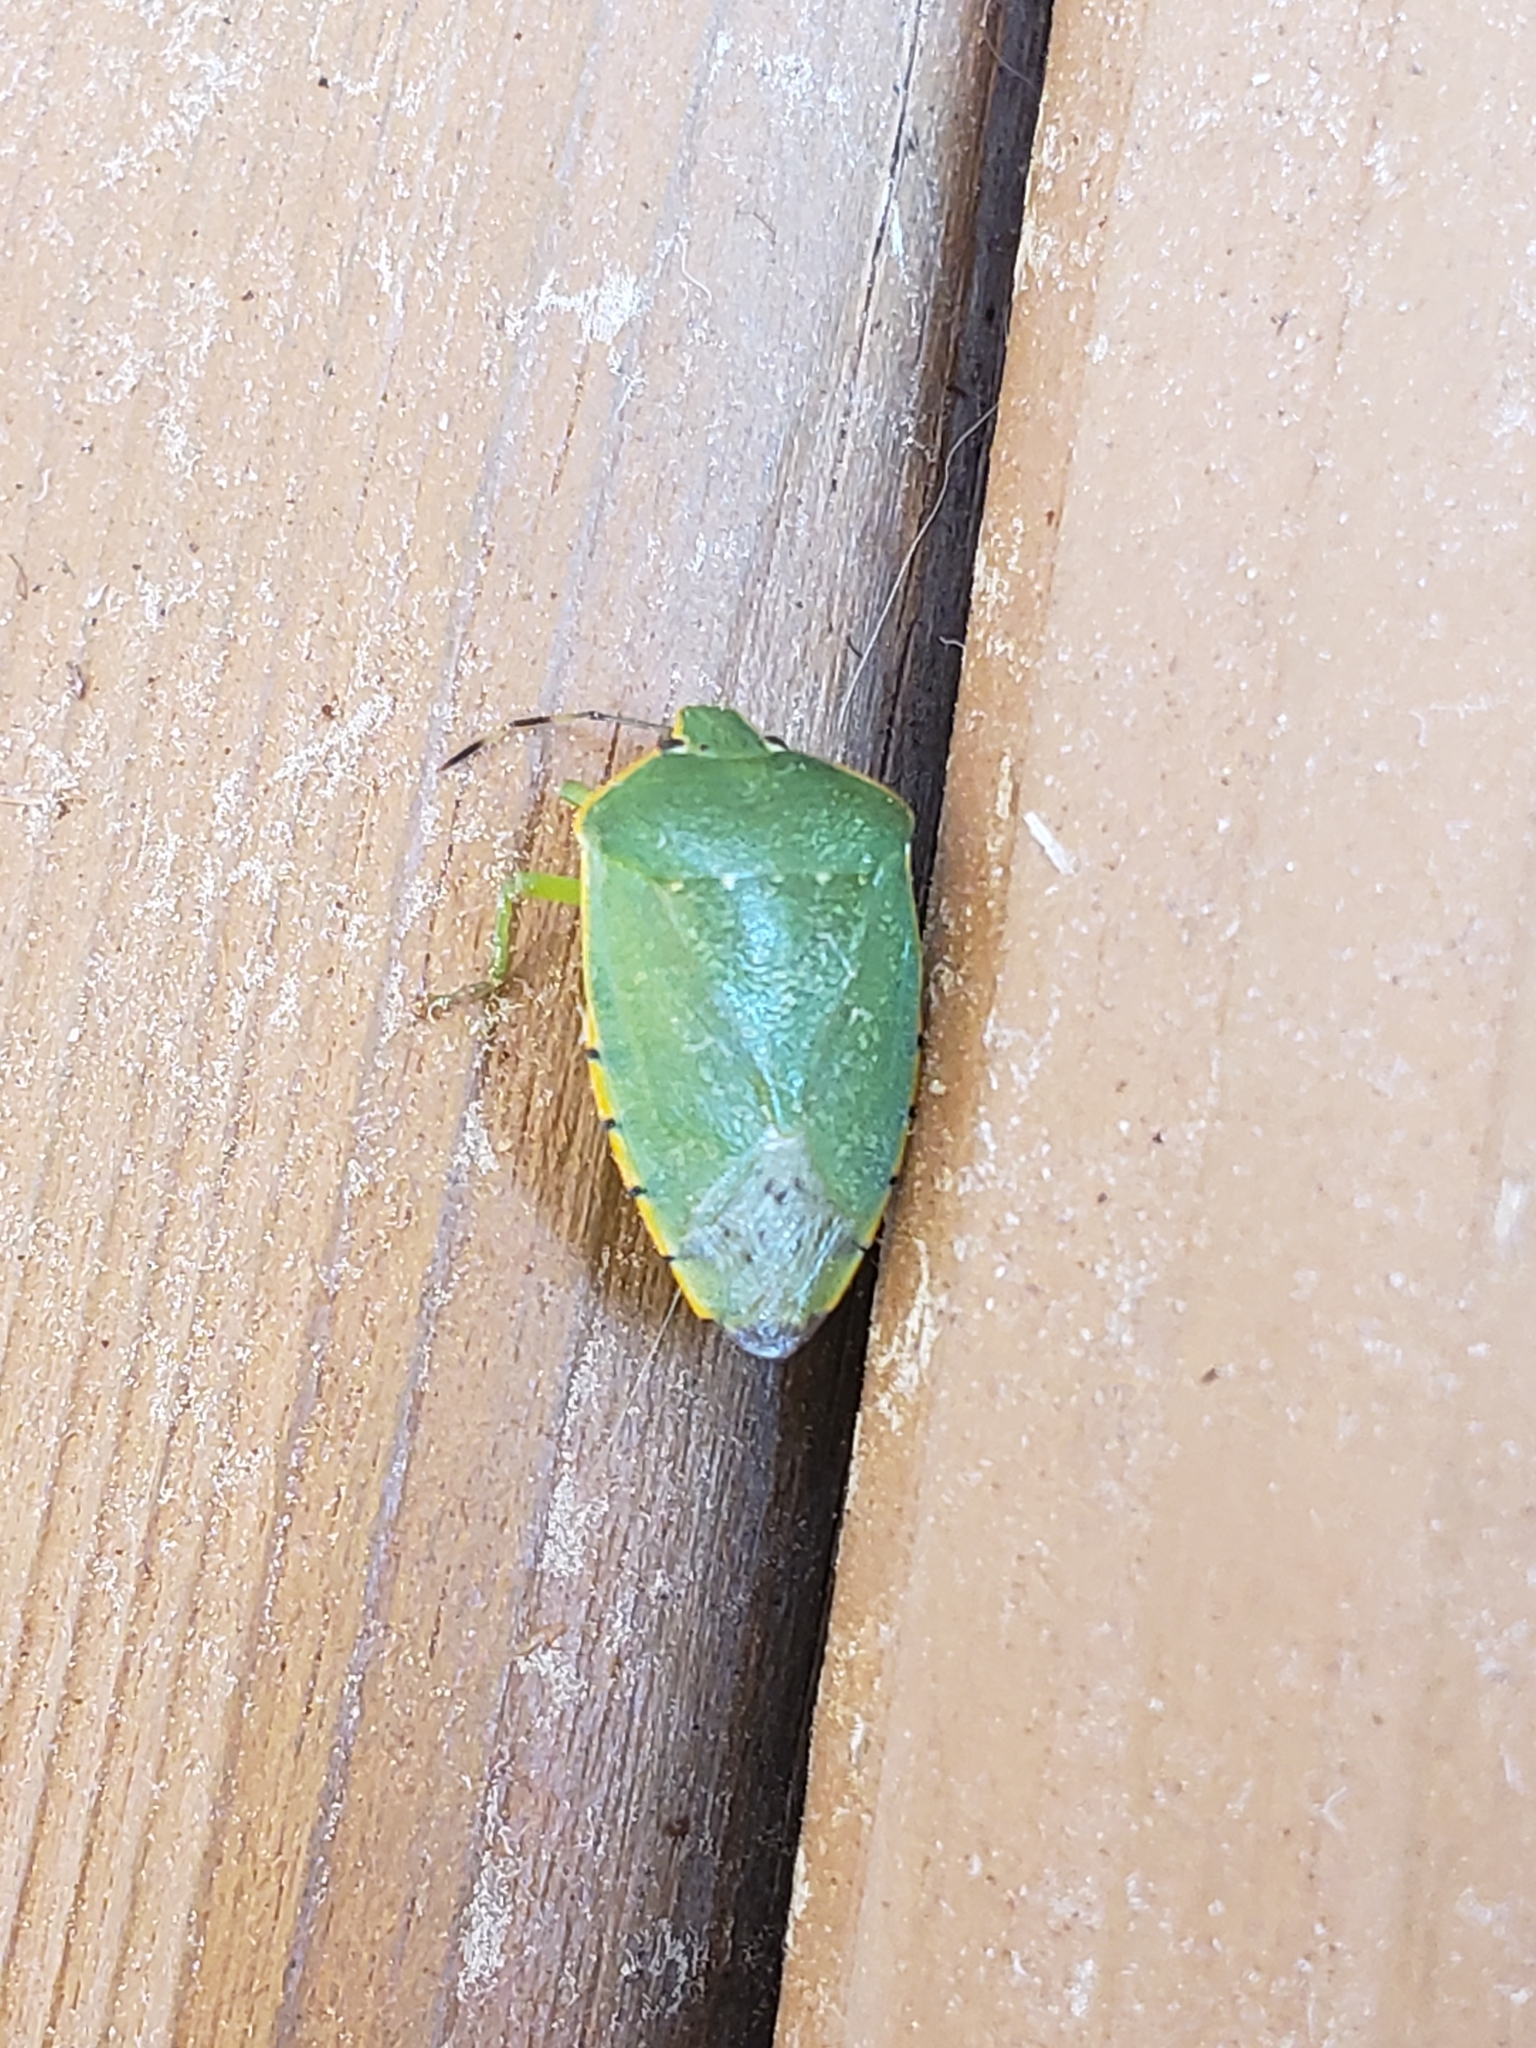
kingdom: Animalia
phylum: Arthropoda
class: Insecta
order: Hemiptera
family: Pentatomidae
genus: Chinavia
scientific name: Chinavia hilaris
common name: Green stink bug
